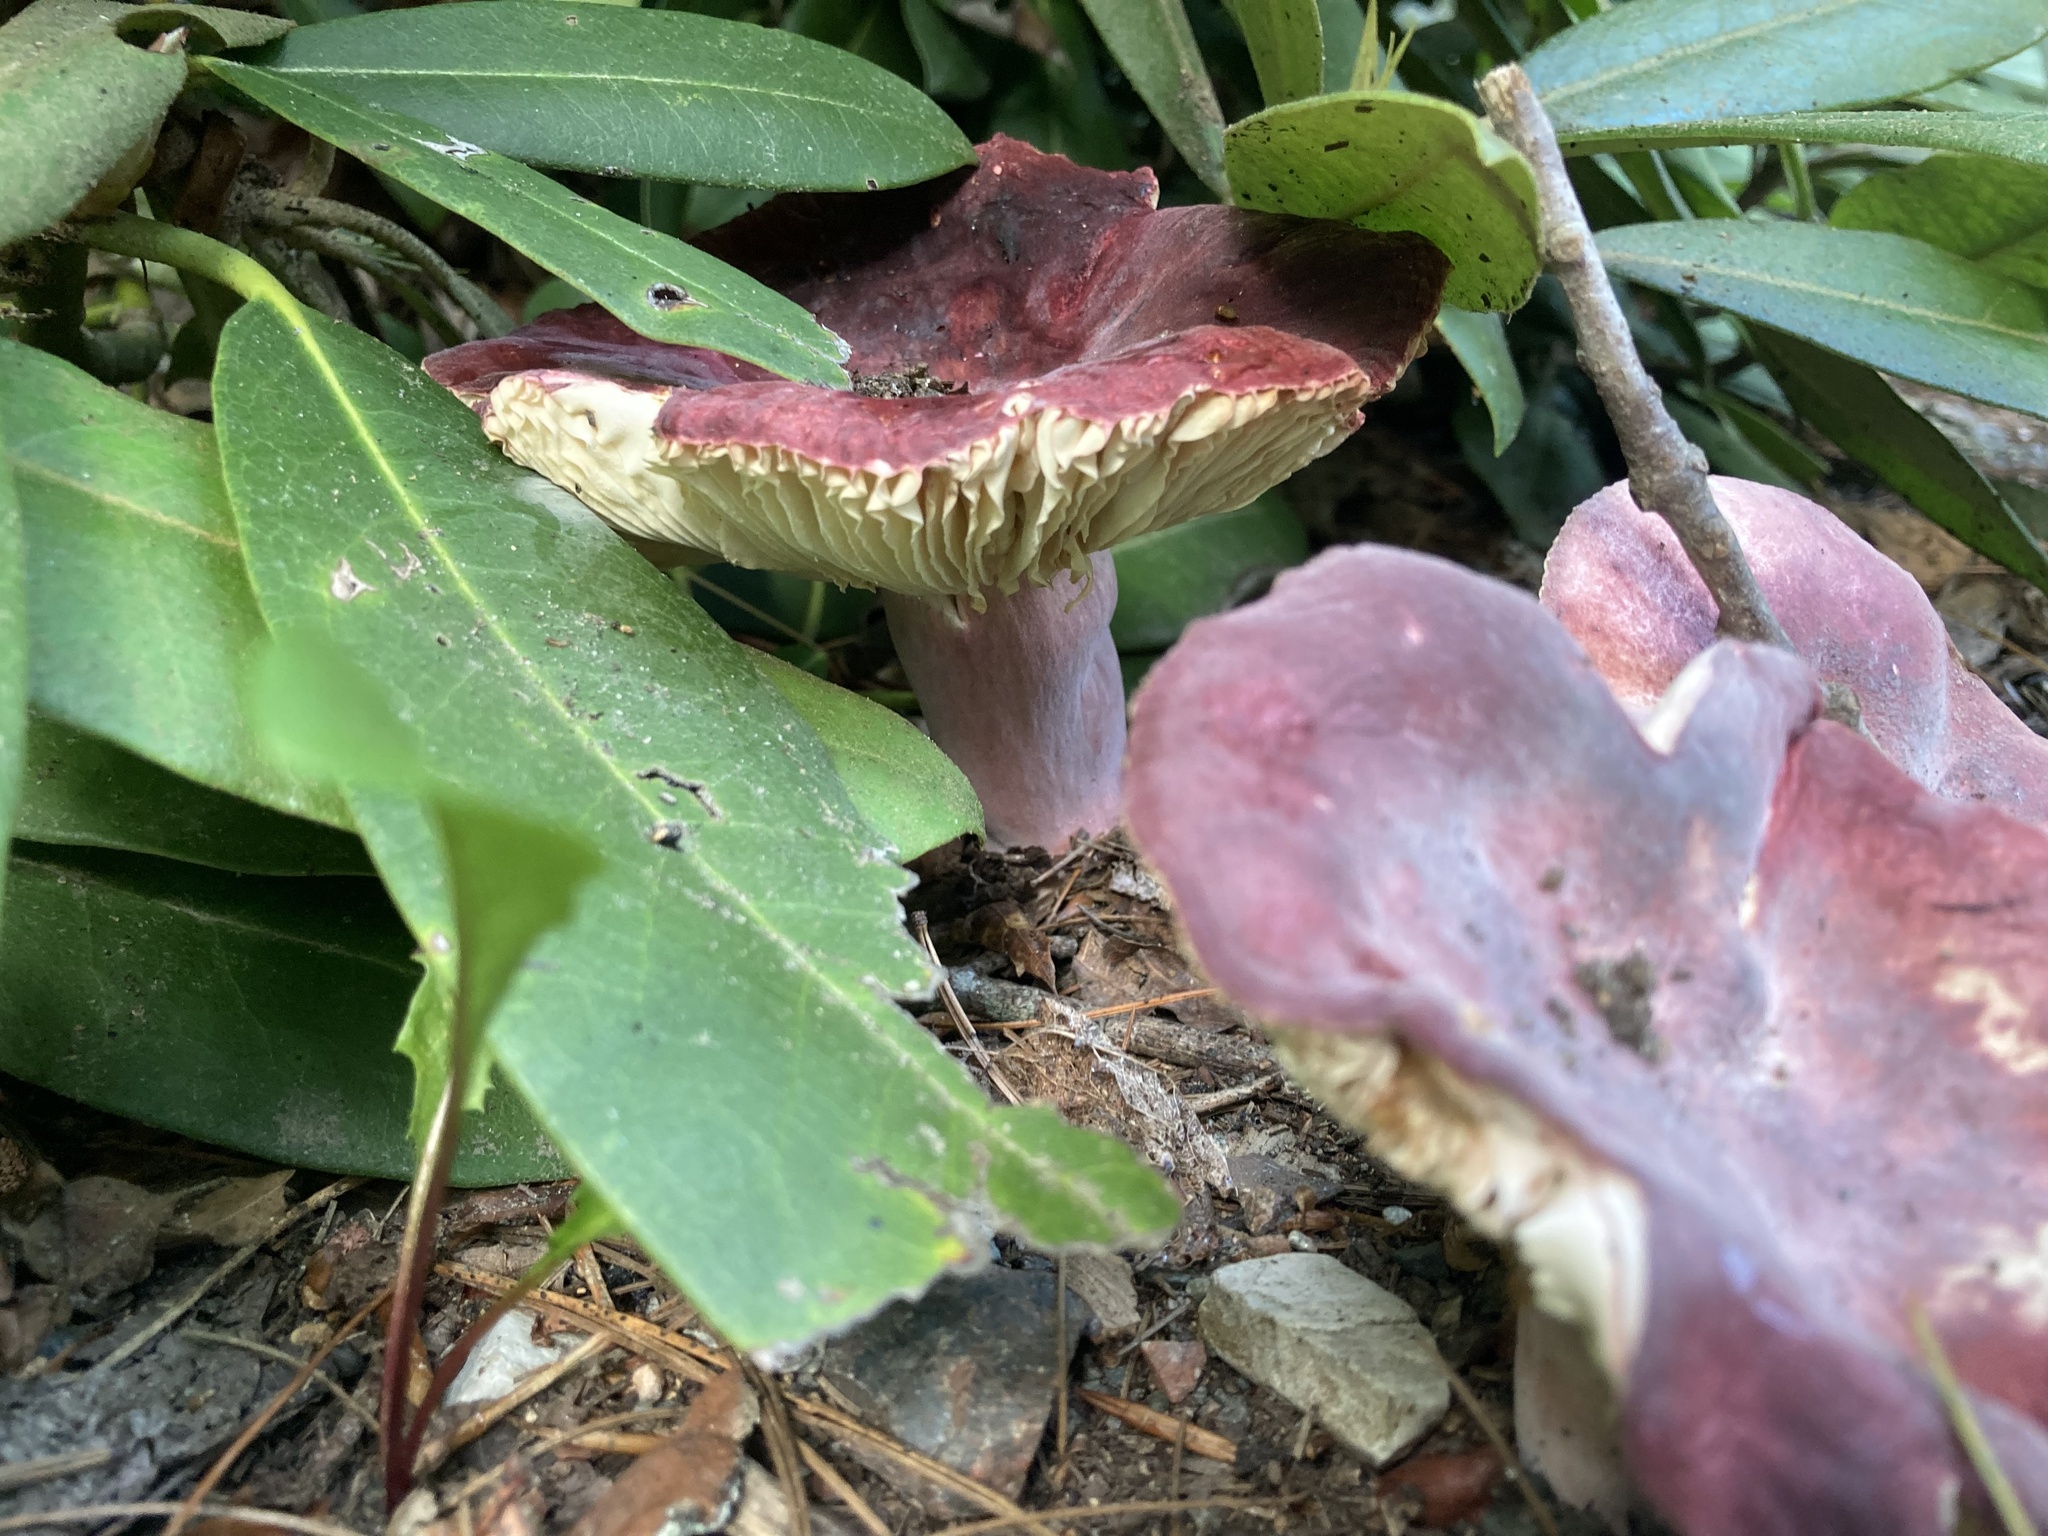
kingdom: Fungi
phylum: Basidiomycota
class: Agaricomycetes
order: Russulales
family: Russulaceae
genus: Russula
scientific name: Russula mariae
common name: Purple-bloom russula
